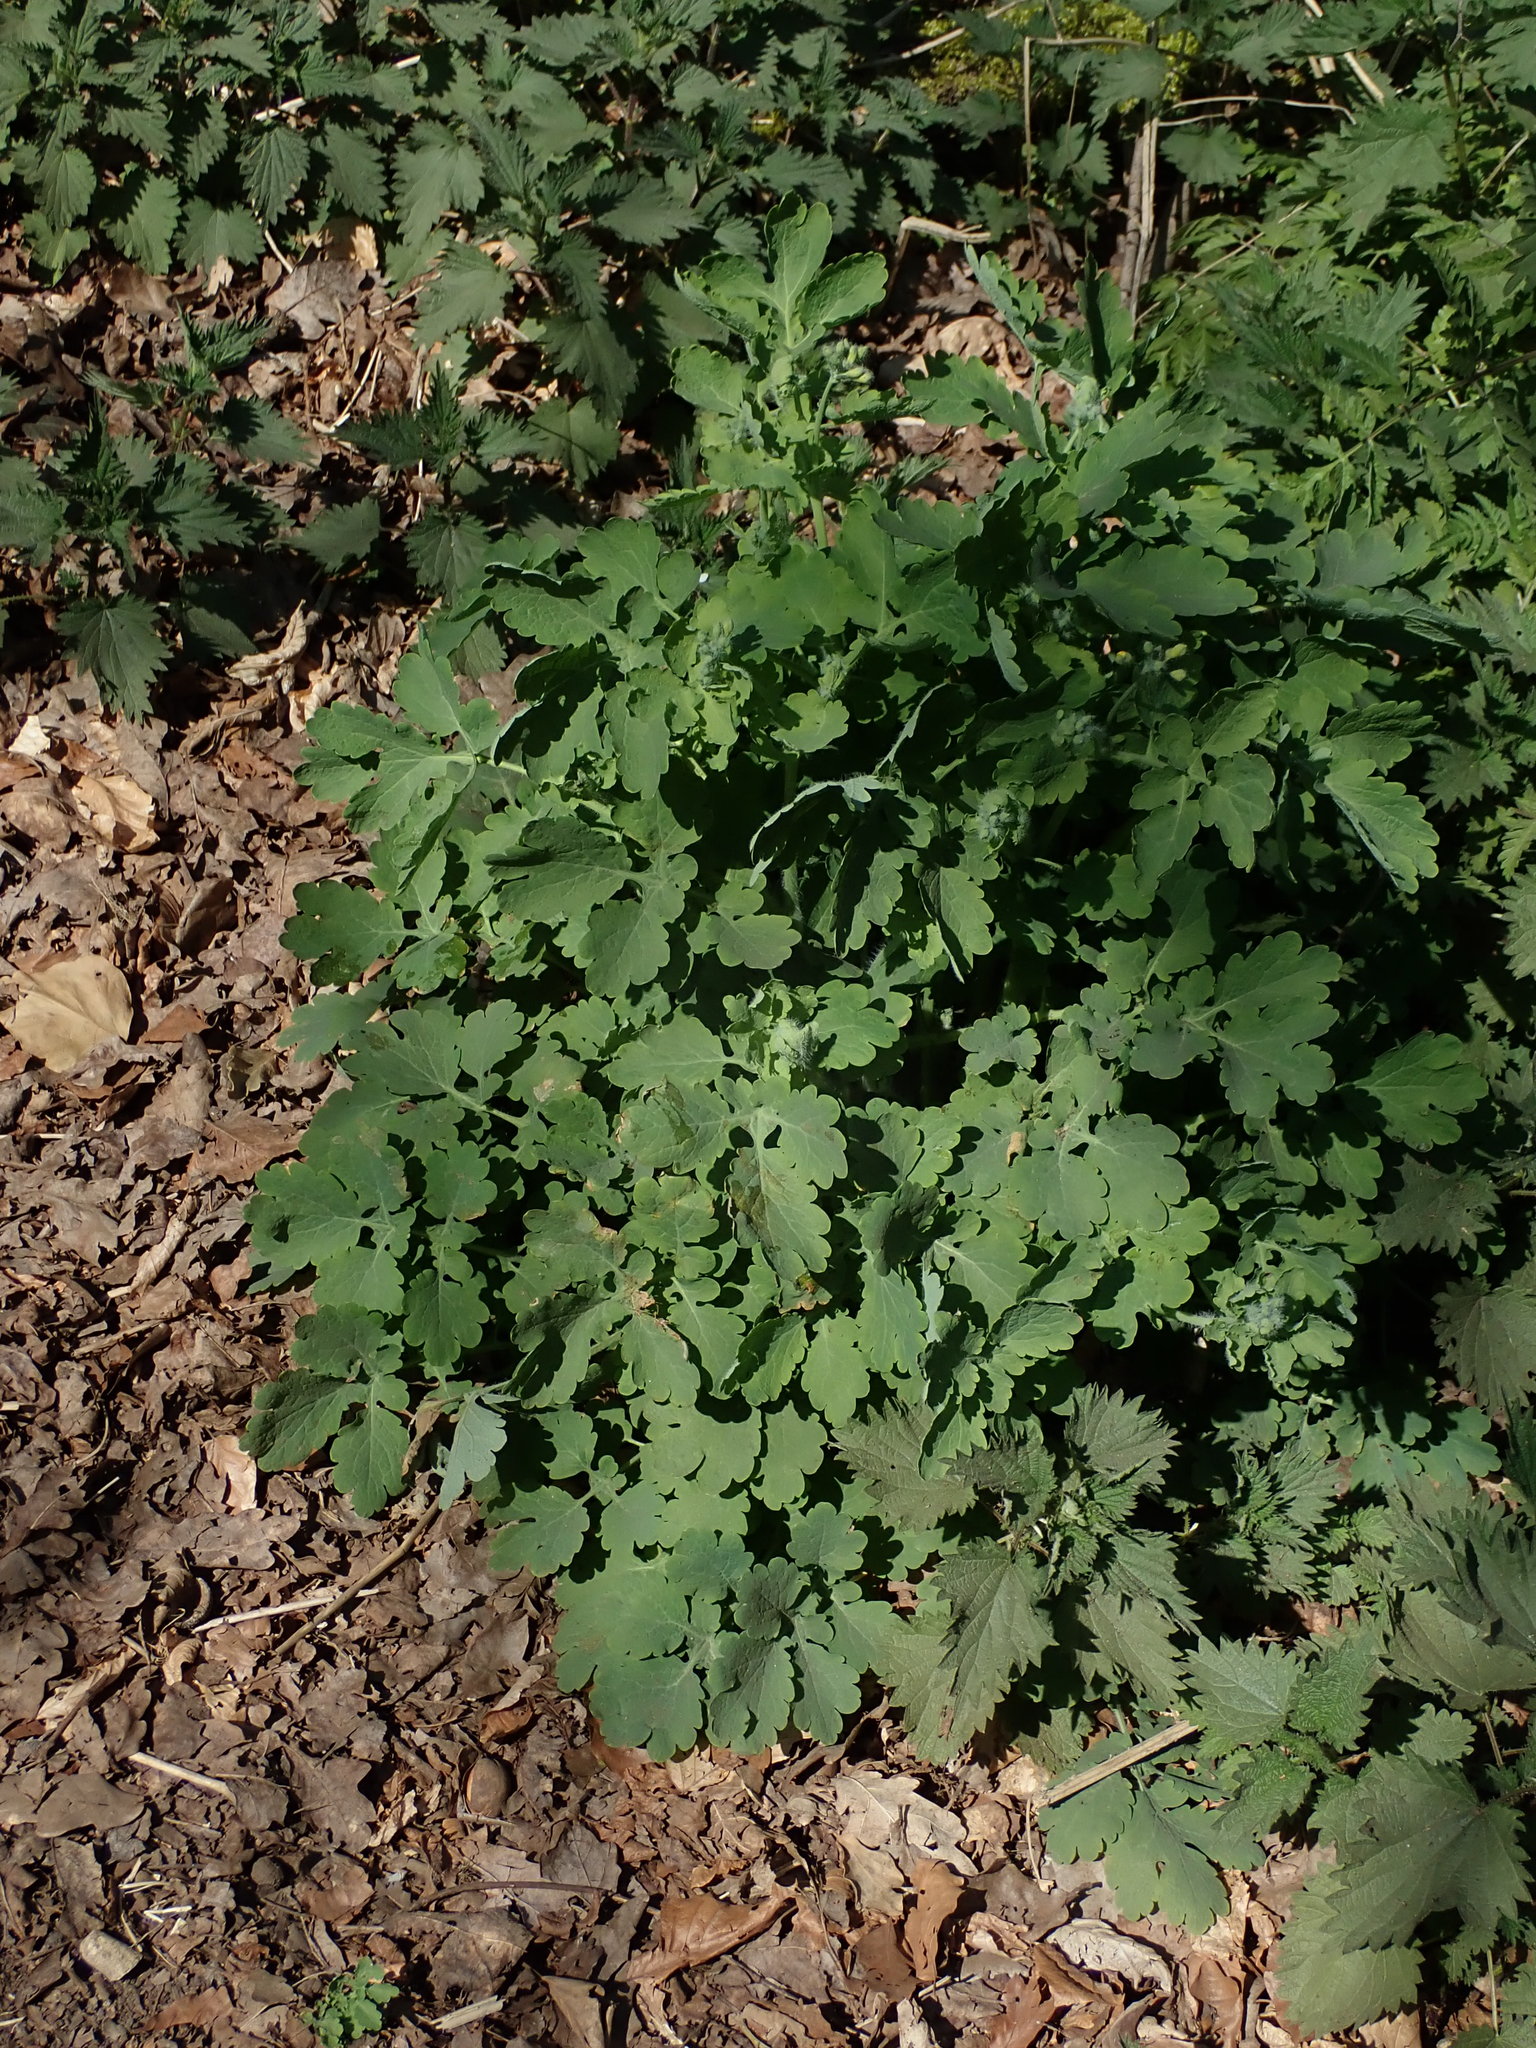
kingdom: Plantae
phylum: Tracheophyta
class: Magnoliopsida
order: Ranunculales
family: Papaveraceae
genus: Chelidonium
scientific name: Chelidonium majus
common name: Greater celandine
